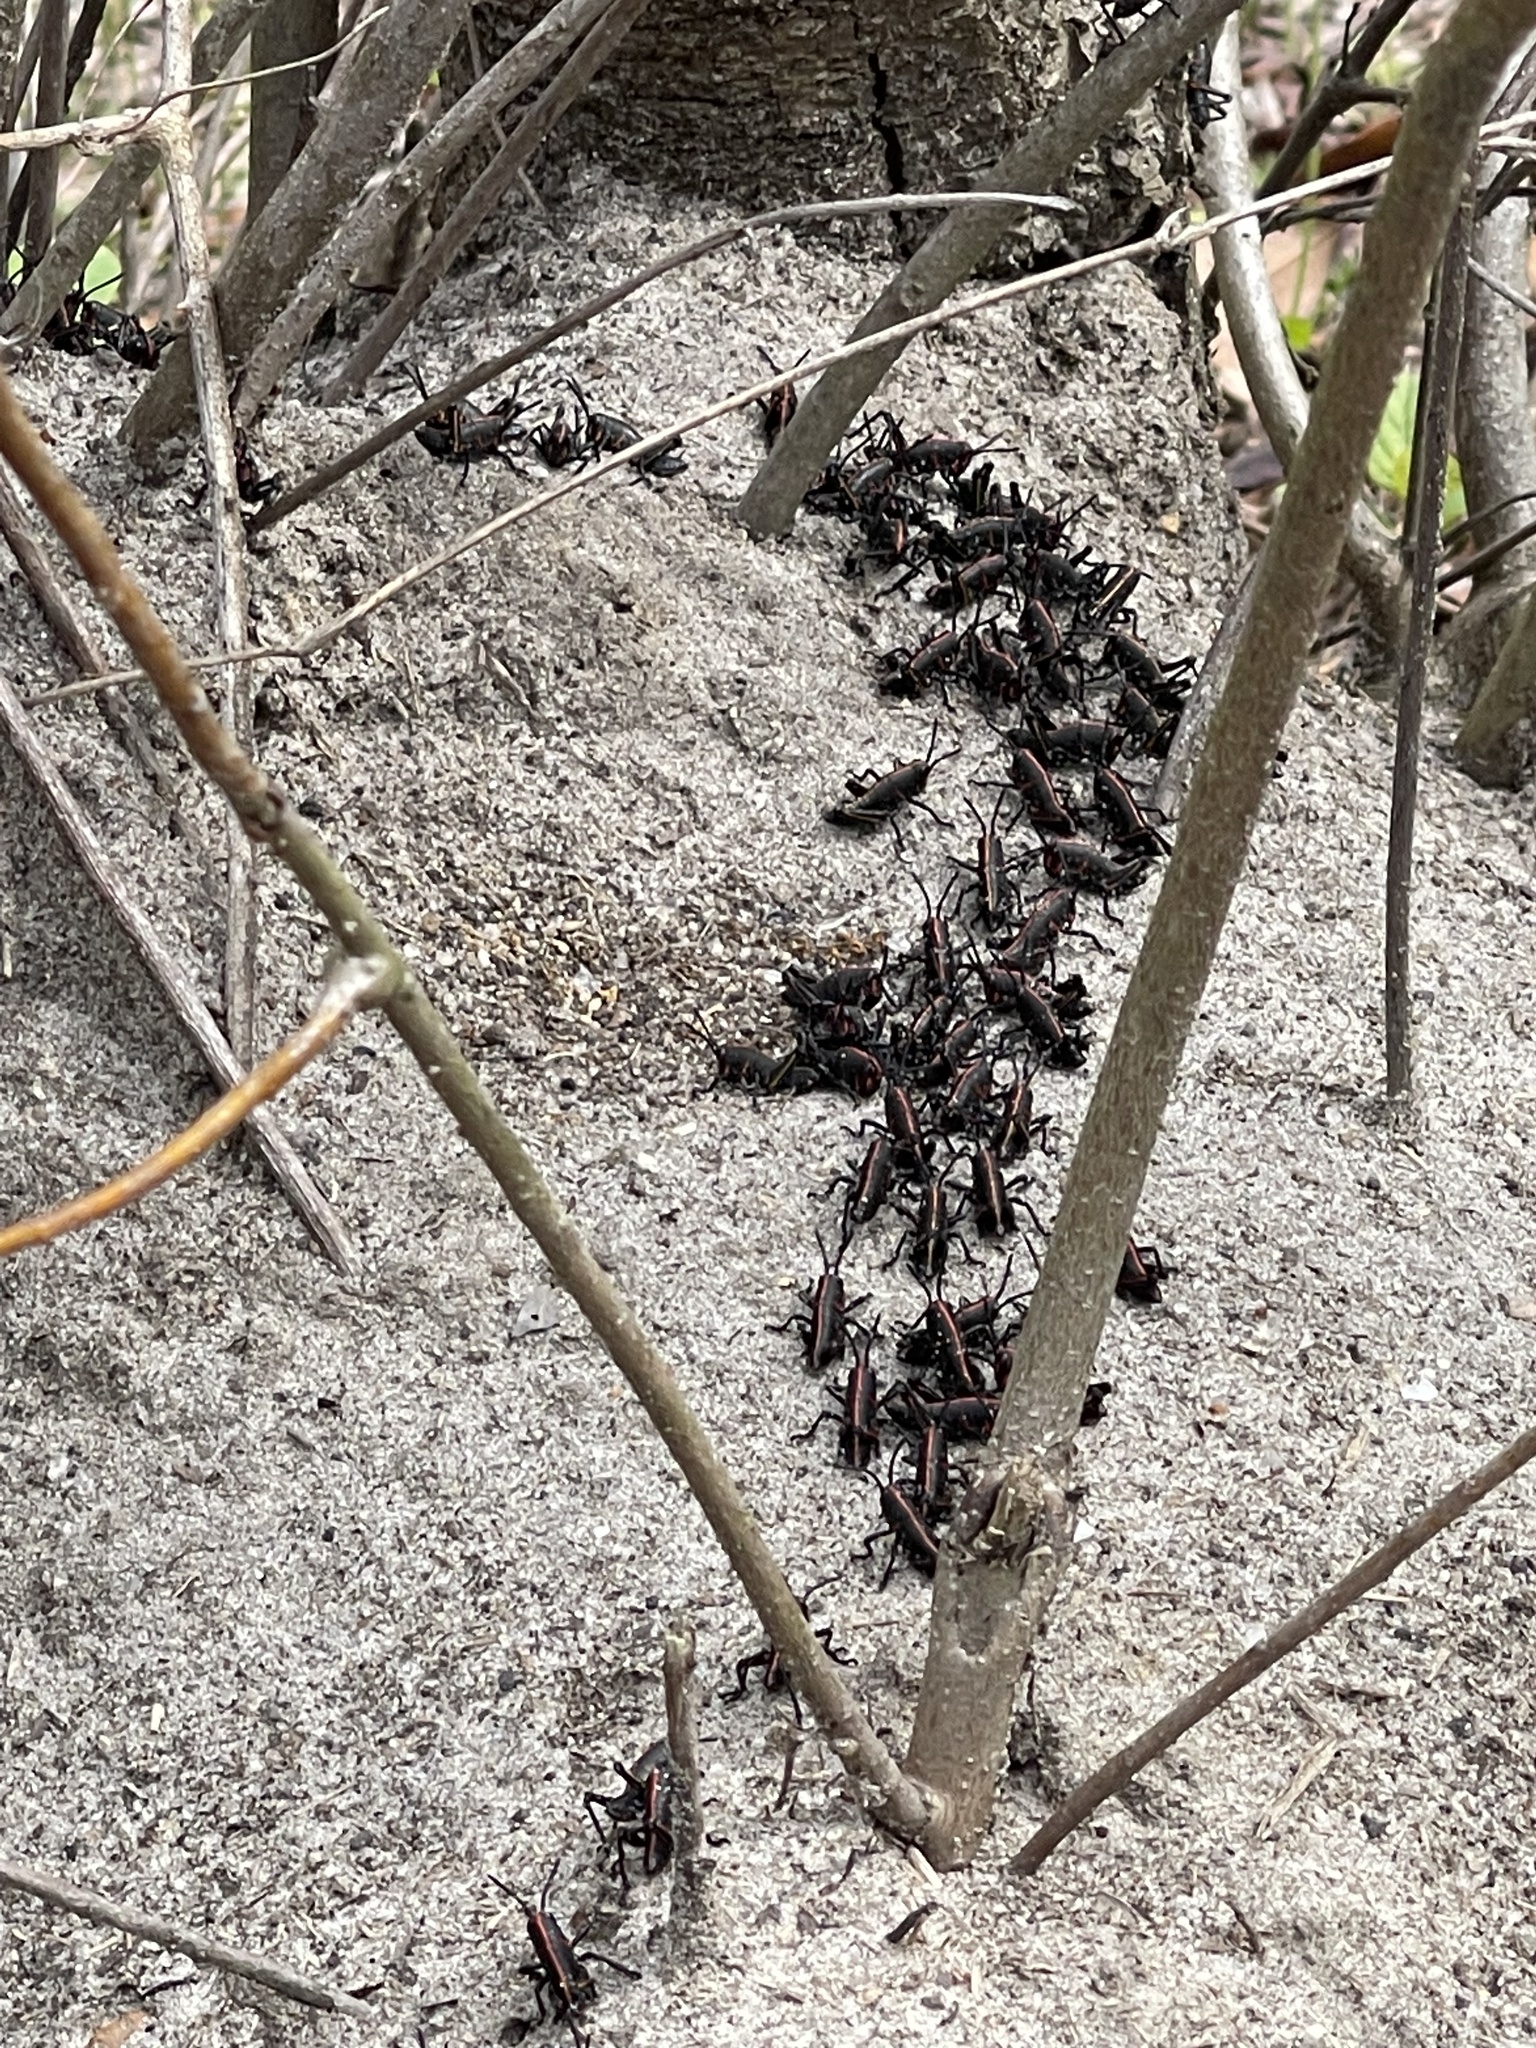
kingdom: Animalia
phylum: Arthropoda
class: Insecta
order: Orthoptera
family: Romaleidae
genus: Romalea
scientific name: Romalea microptera
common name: Eastern lubber grasshopper
